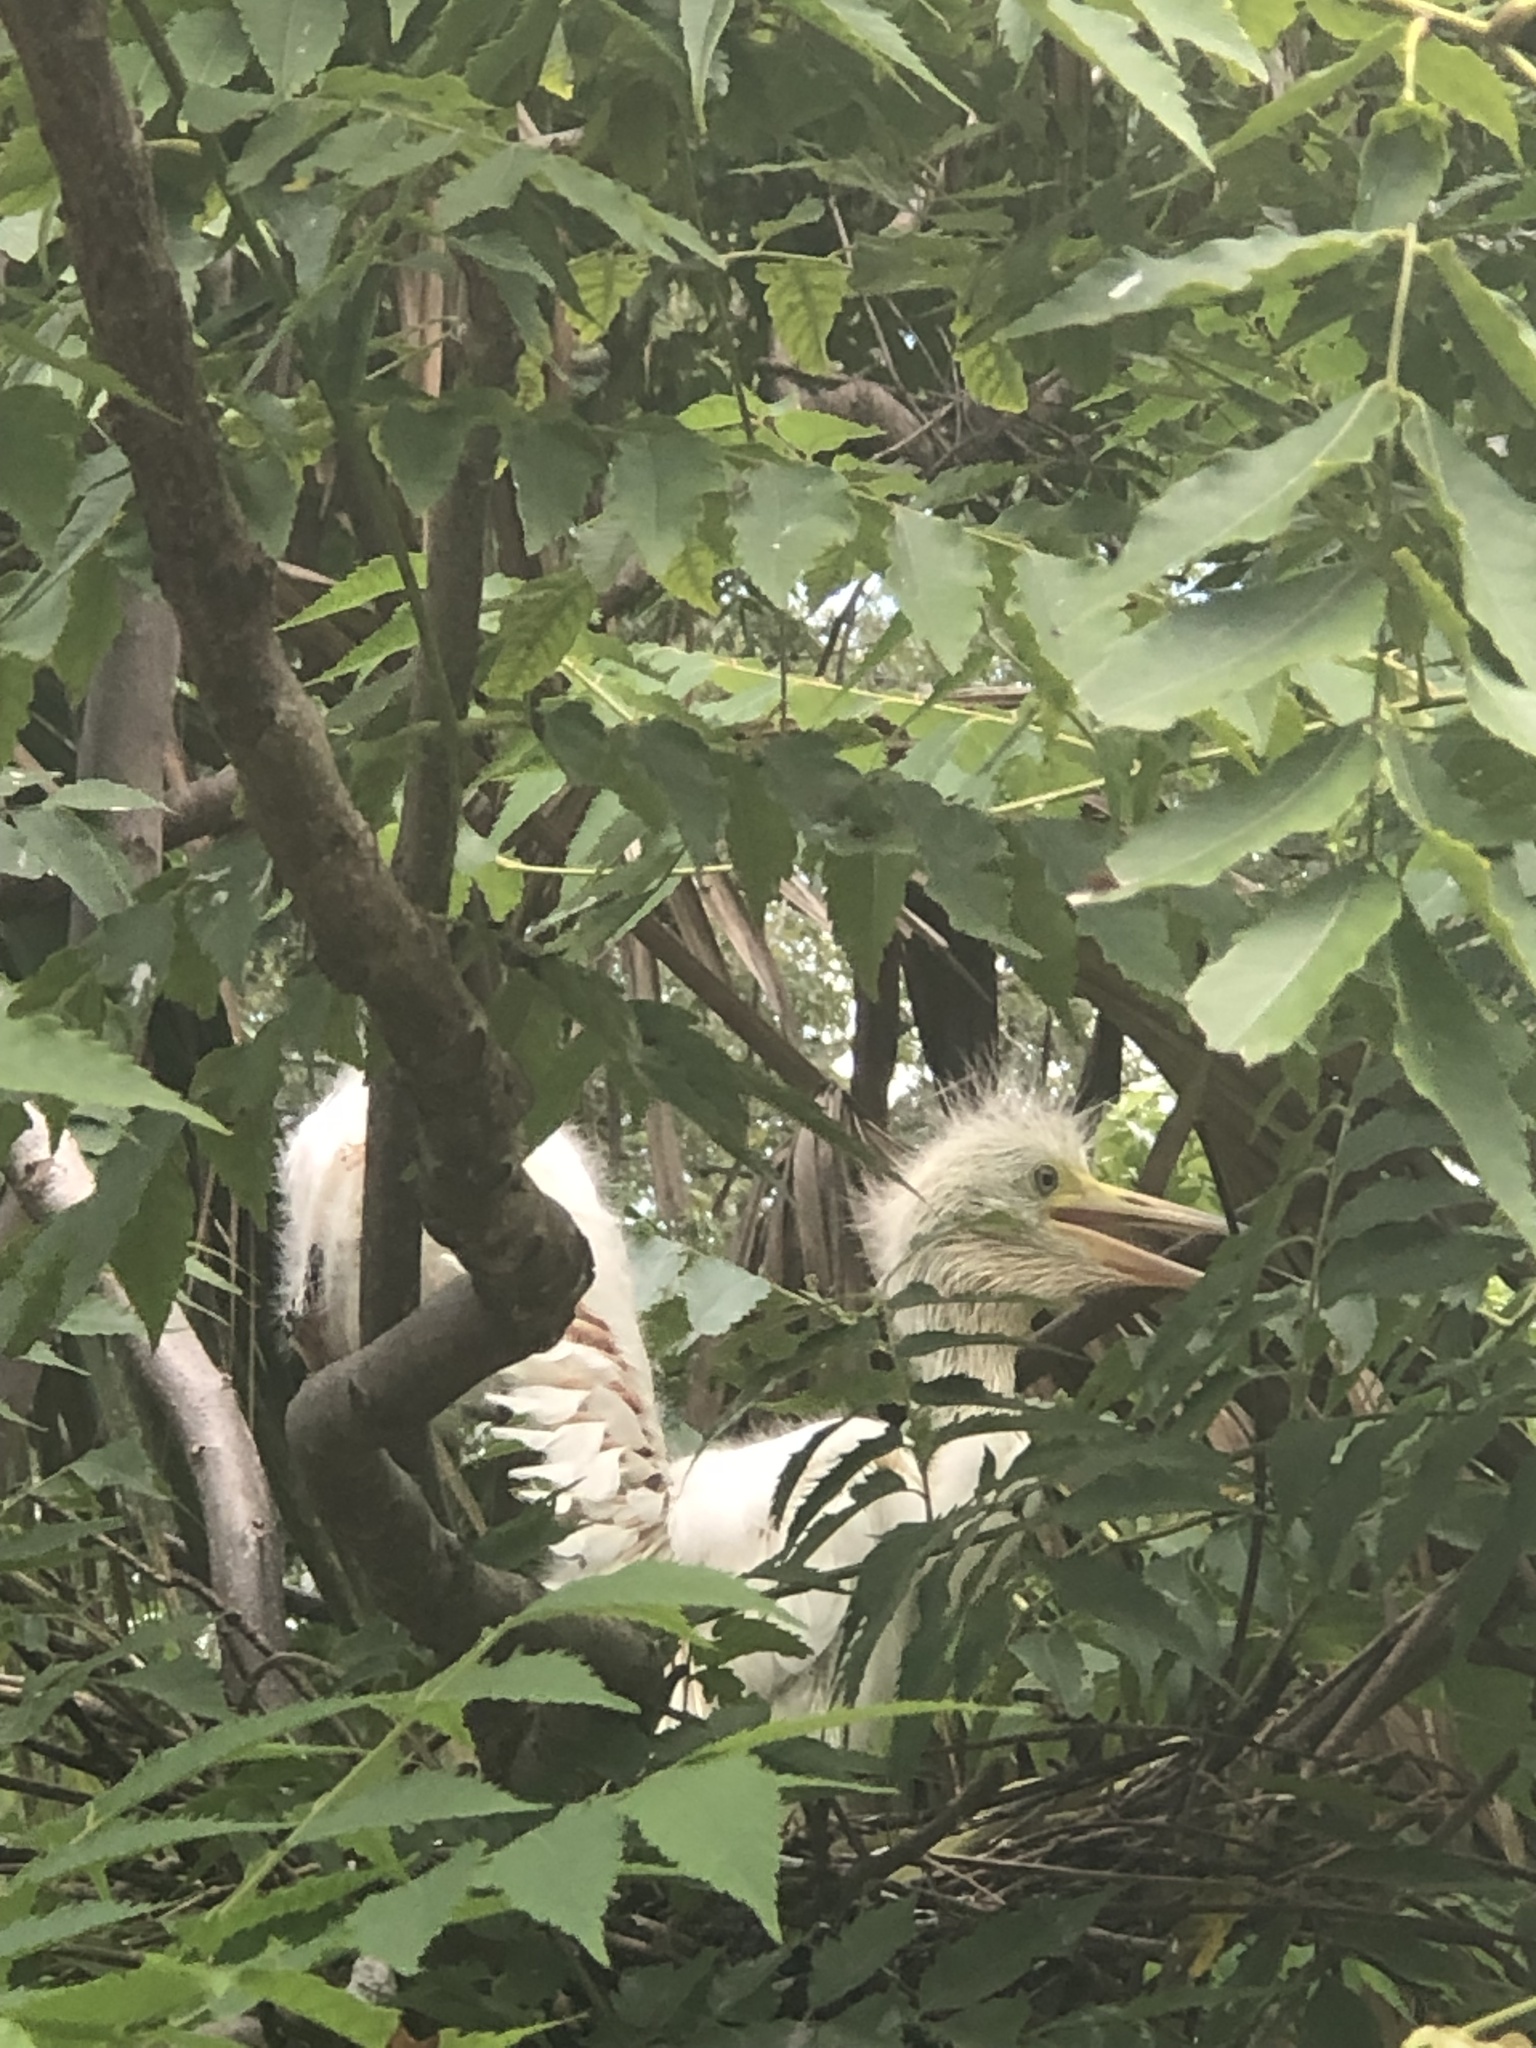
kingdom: Animalia
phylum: Chordata
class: Aves
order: Pelecaniformes
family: Ardeidae
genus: Egretta
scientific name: Egretta caerulea
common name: Little blue heron
